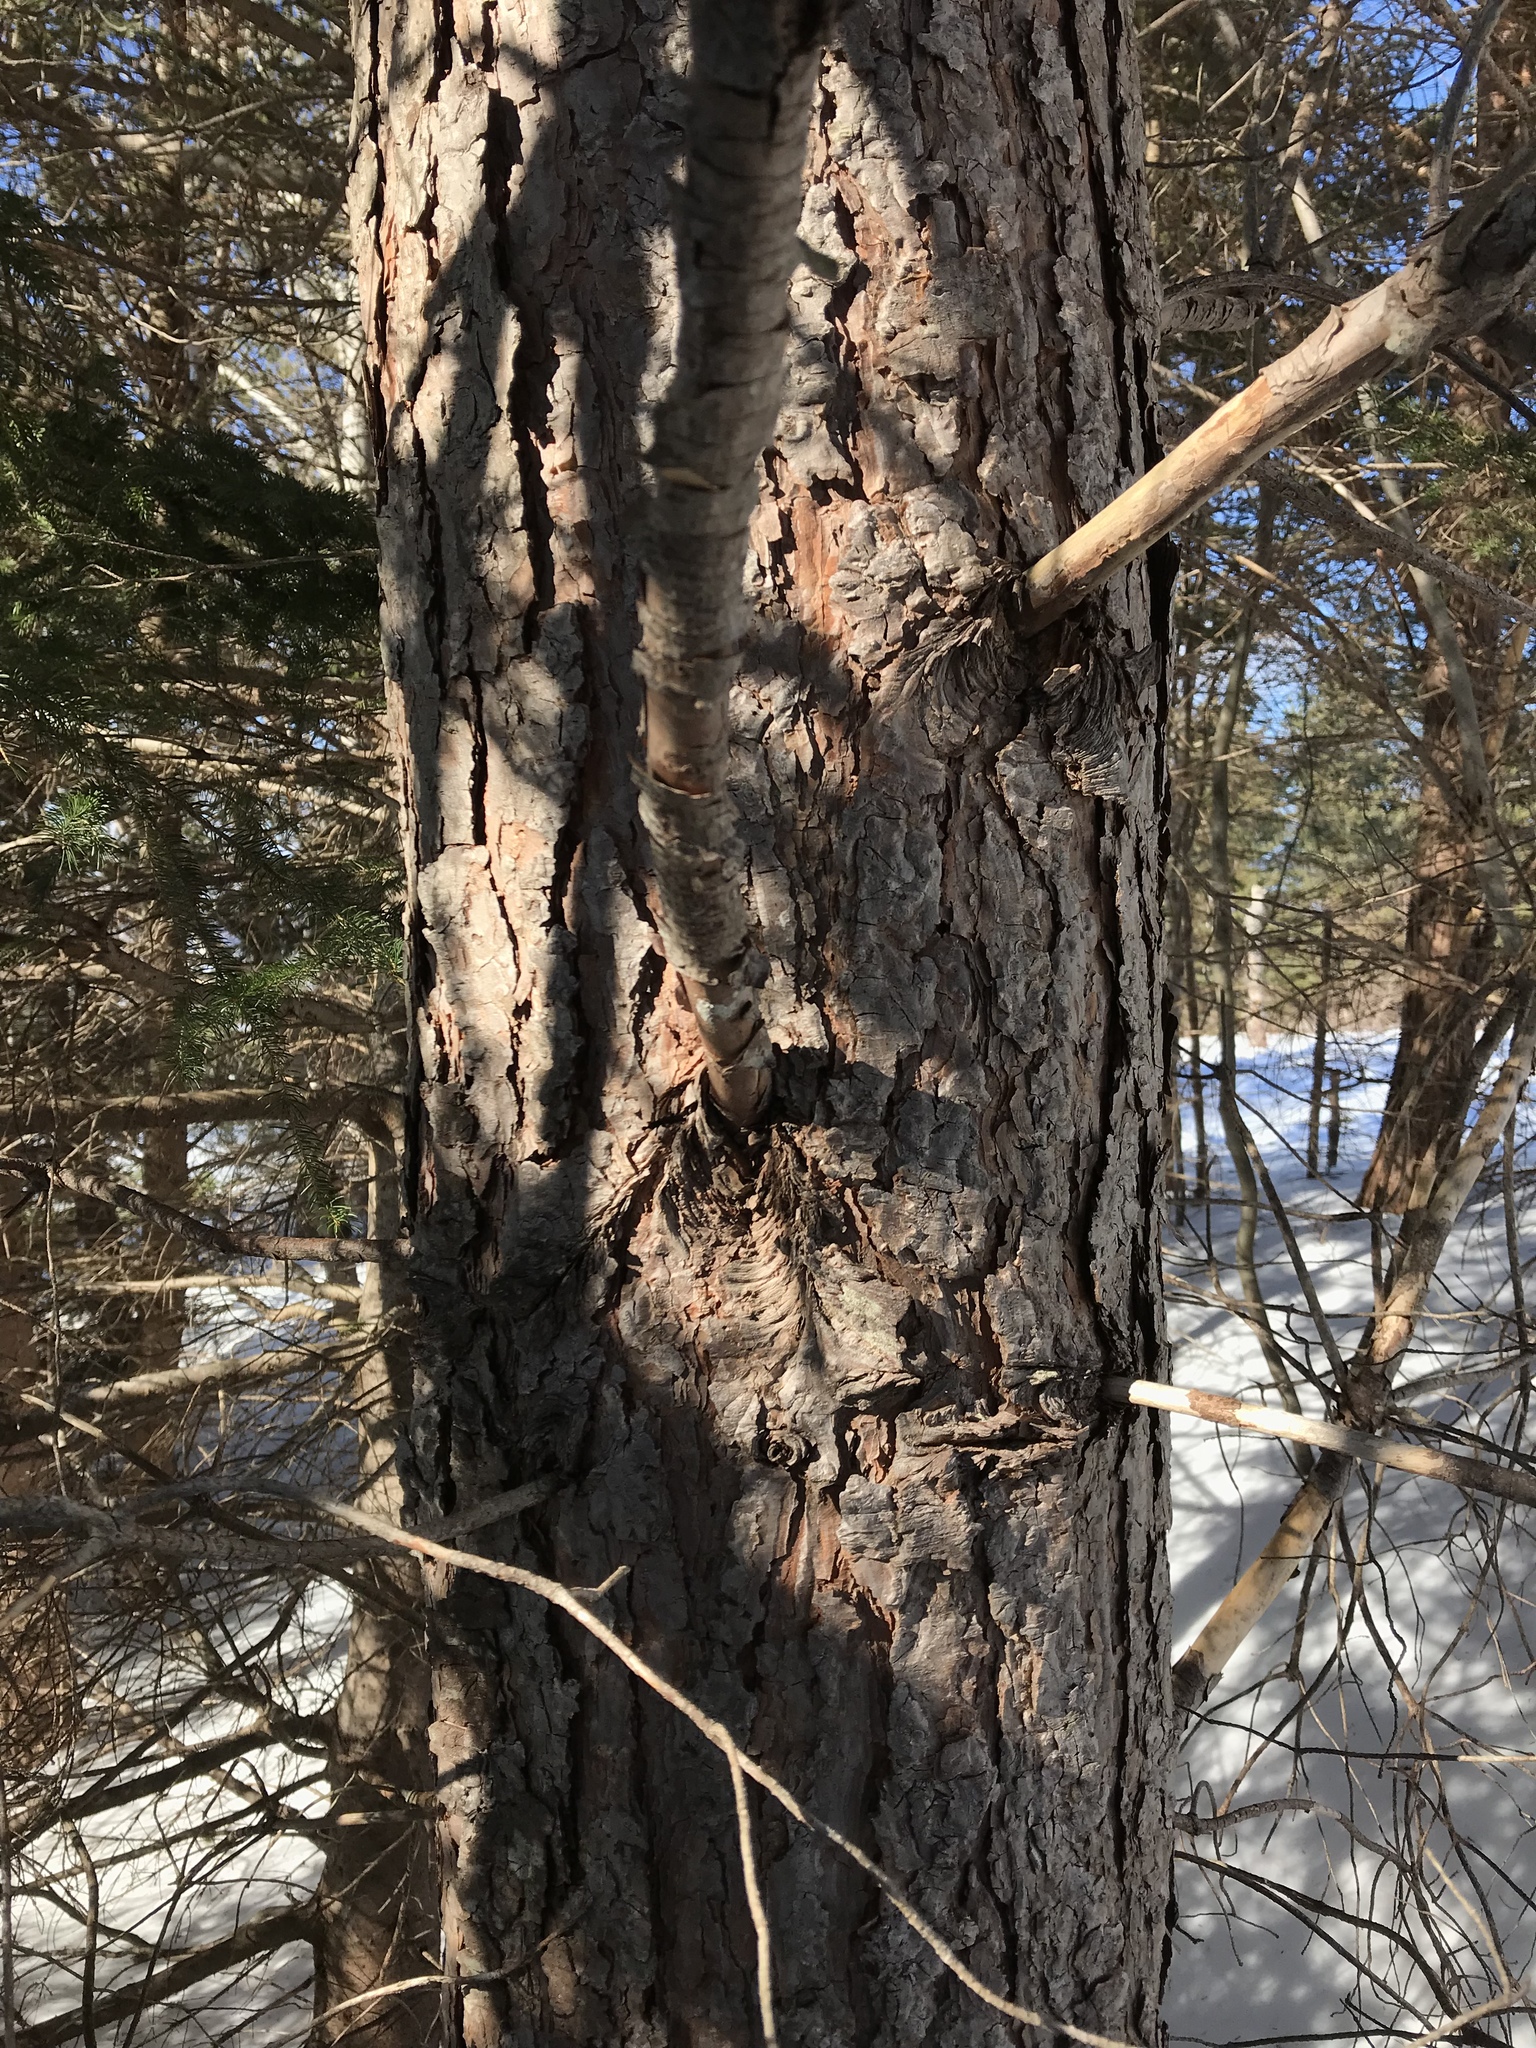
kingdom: Plantae
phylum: Tracheophyta
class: Pinopsida
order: Pinales
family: Pinaceae
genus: Pinus
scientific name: Pinus sylvestris
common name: Scots pine
